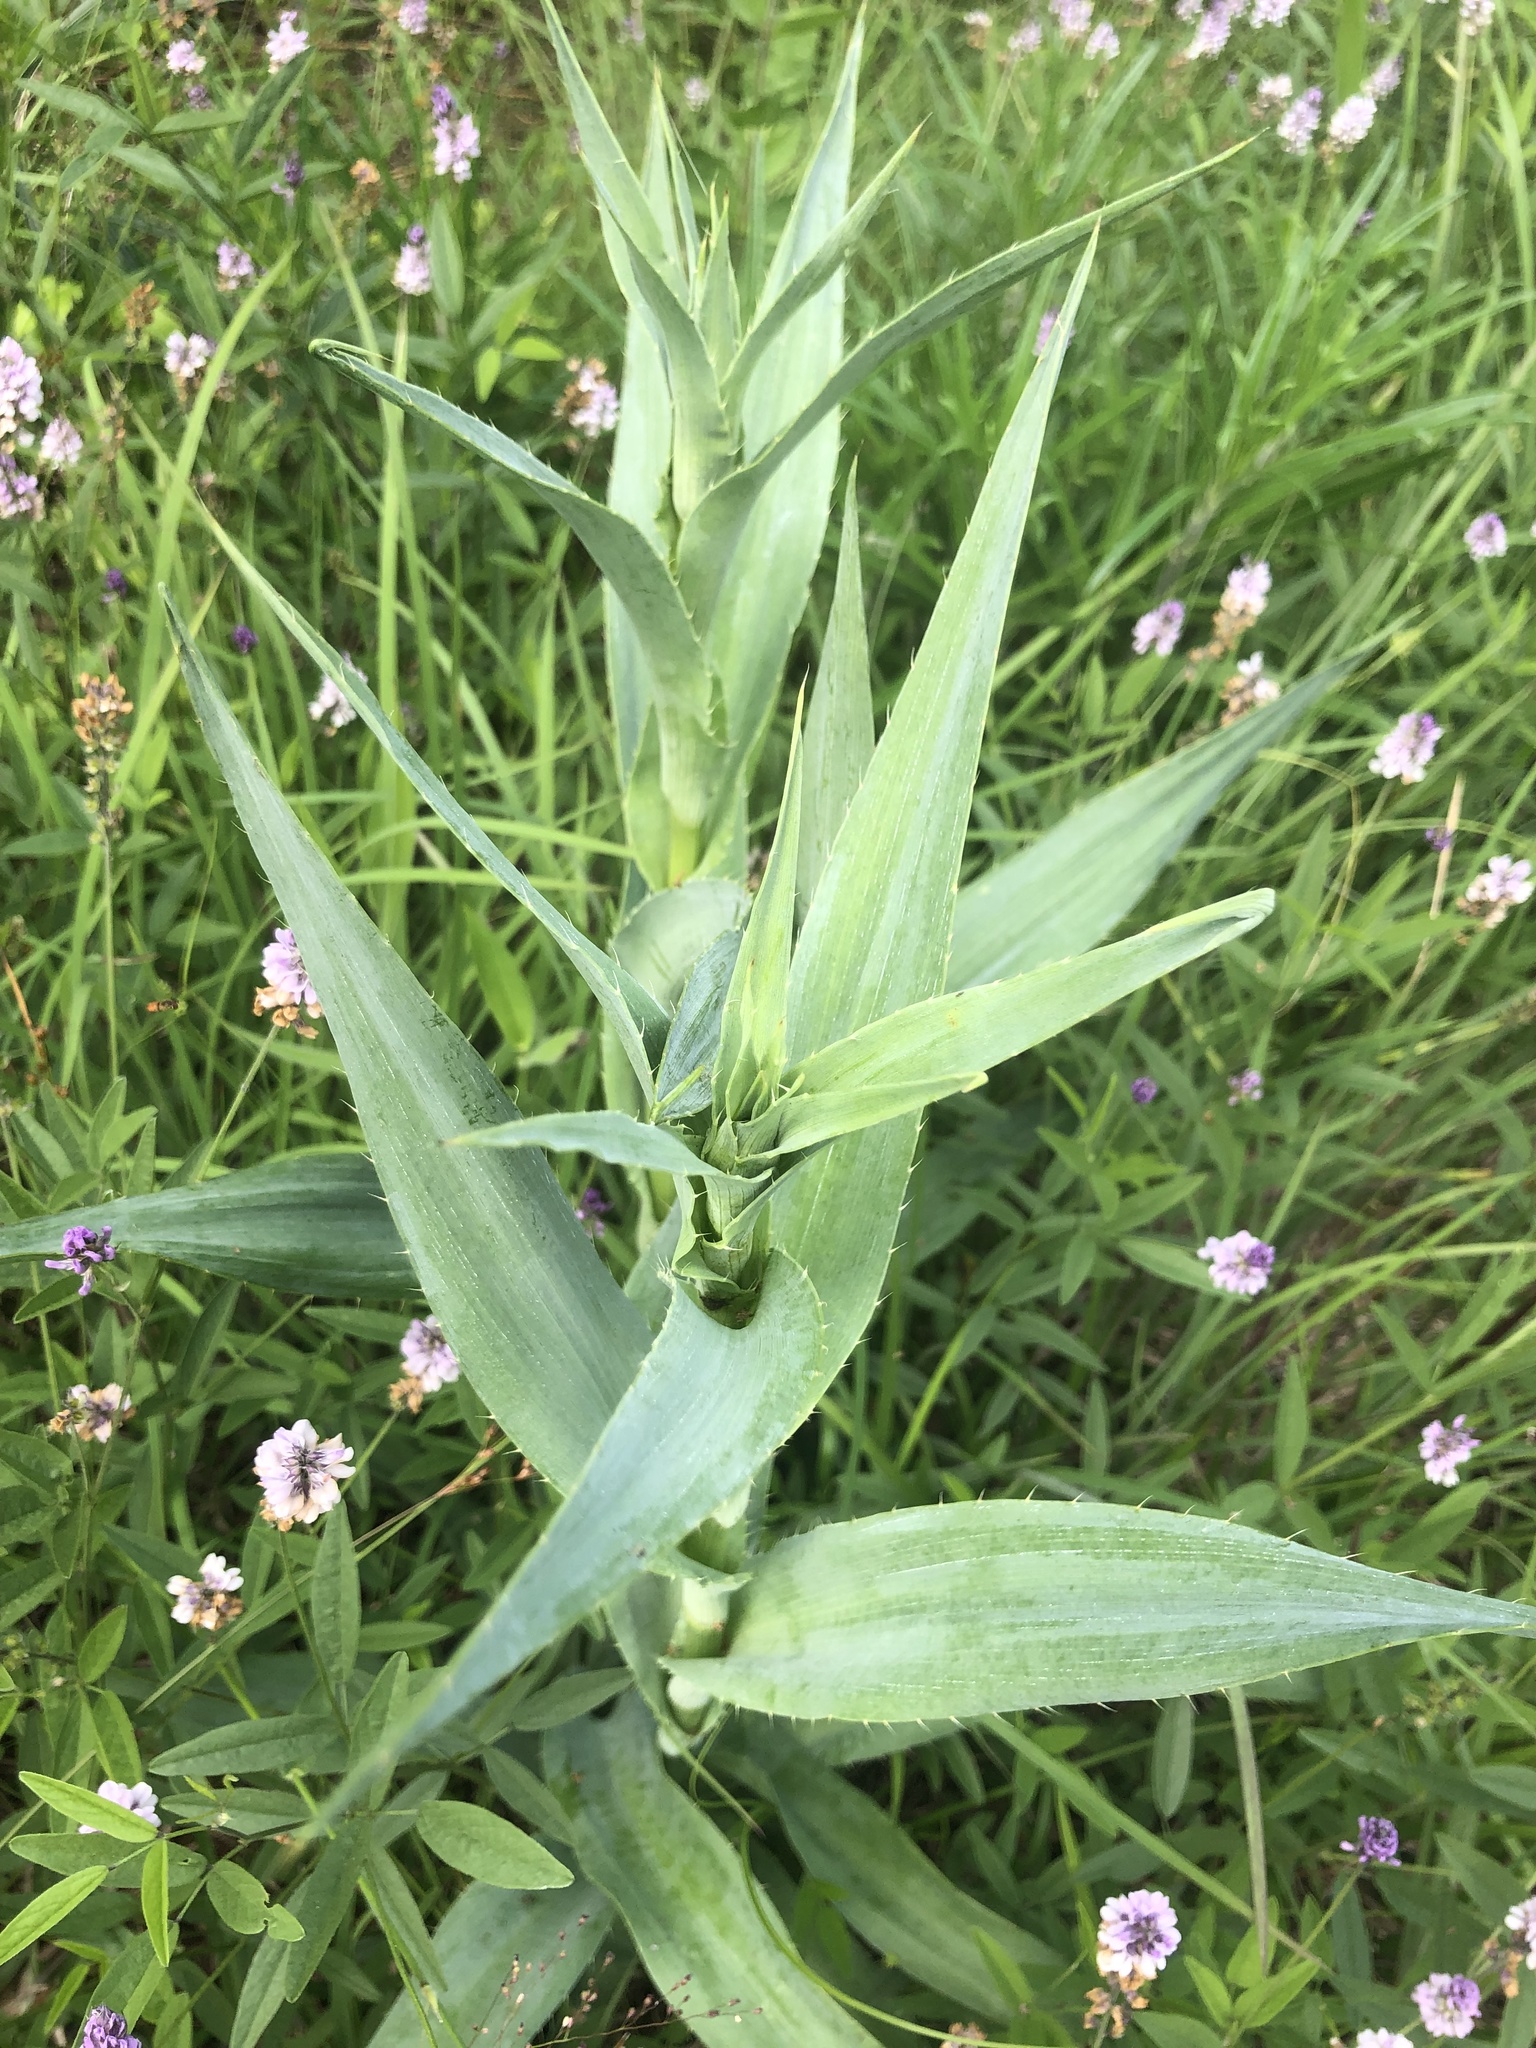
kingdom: Plantae
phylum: Tracheophyta
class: Magnoliopsida
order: Apiales
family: Apiaceae
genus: Eryngium
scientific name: Eryngium yuccifolium
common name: Button eryngo
